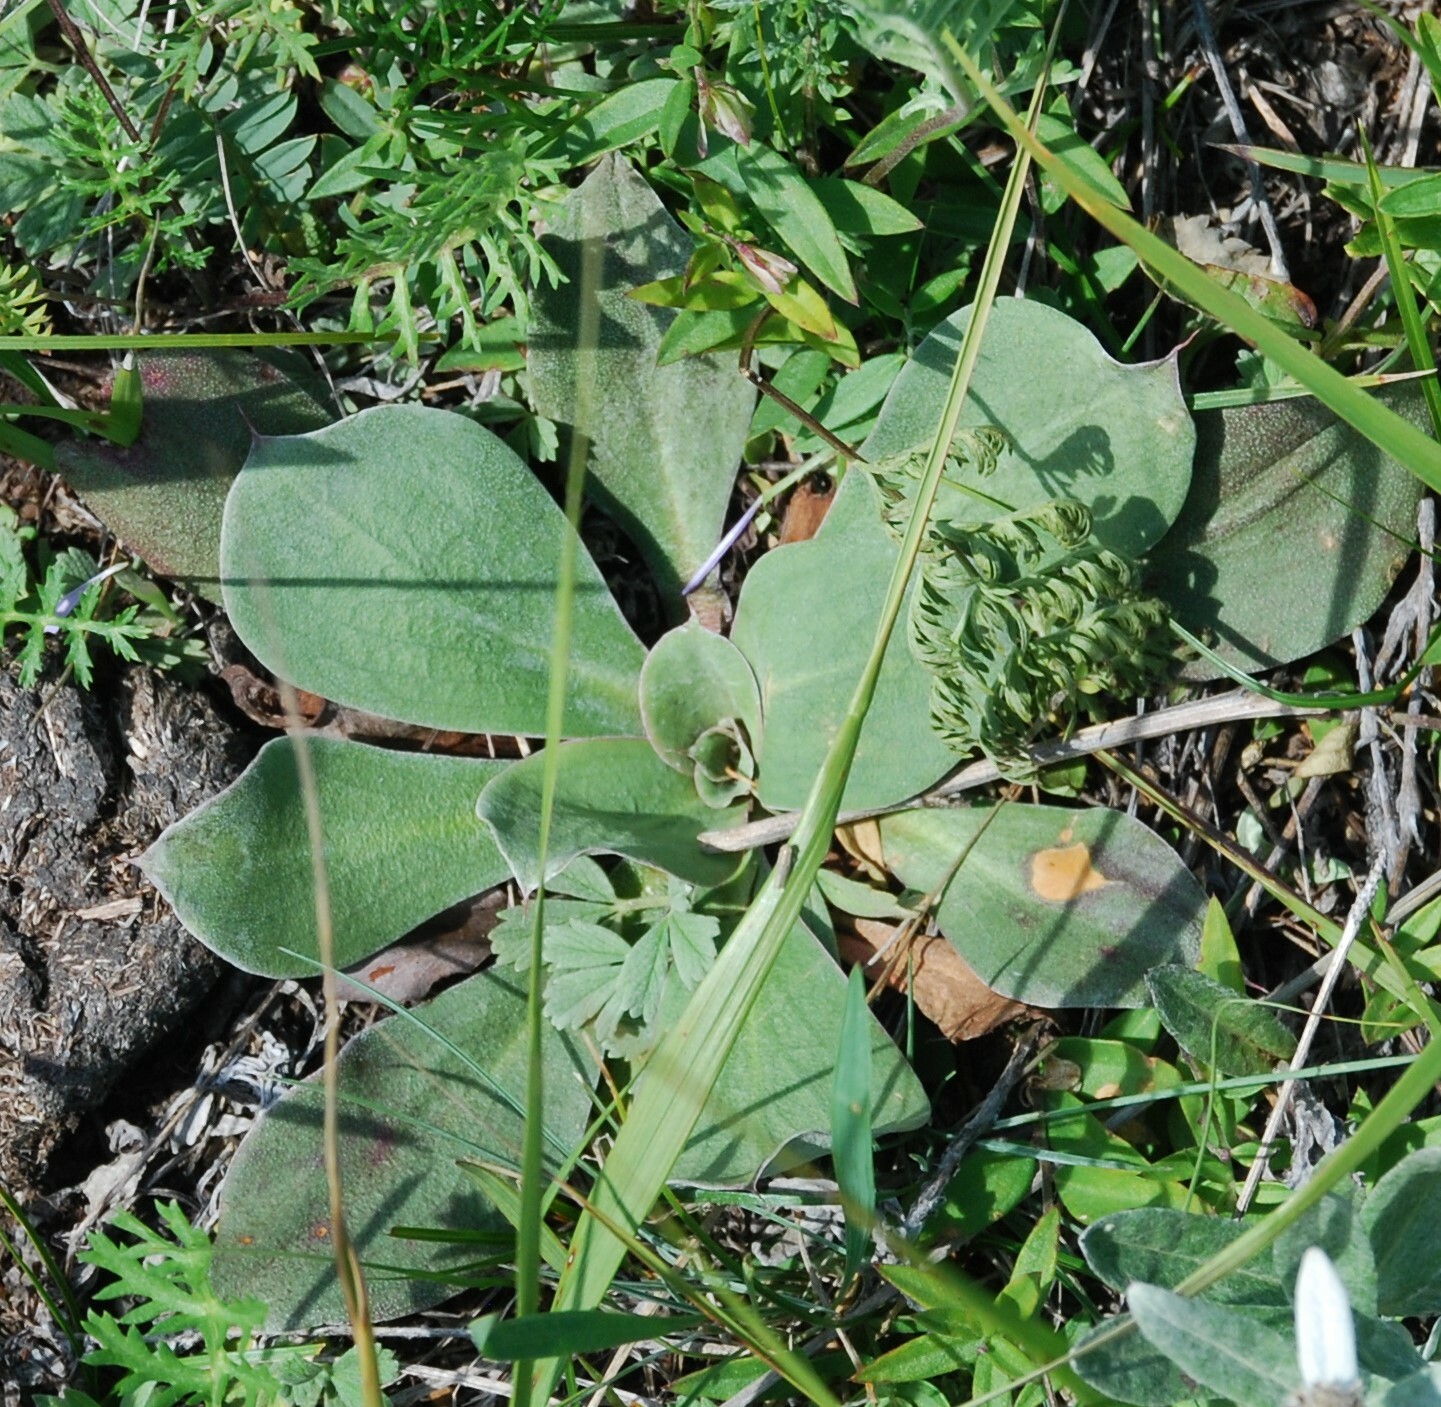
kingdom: Plantae
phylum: Tracheophyta
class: Magnoliopsida
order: Caryophyllales
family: Plumbaginaceae
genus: Goniolimon
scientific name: Goniolimon speciosum
